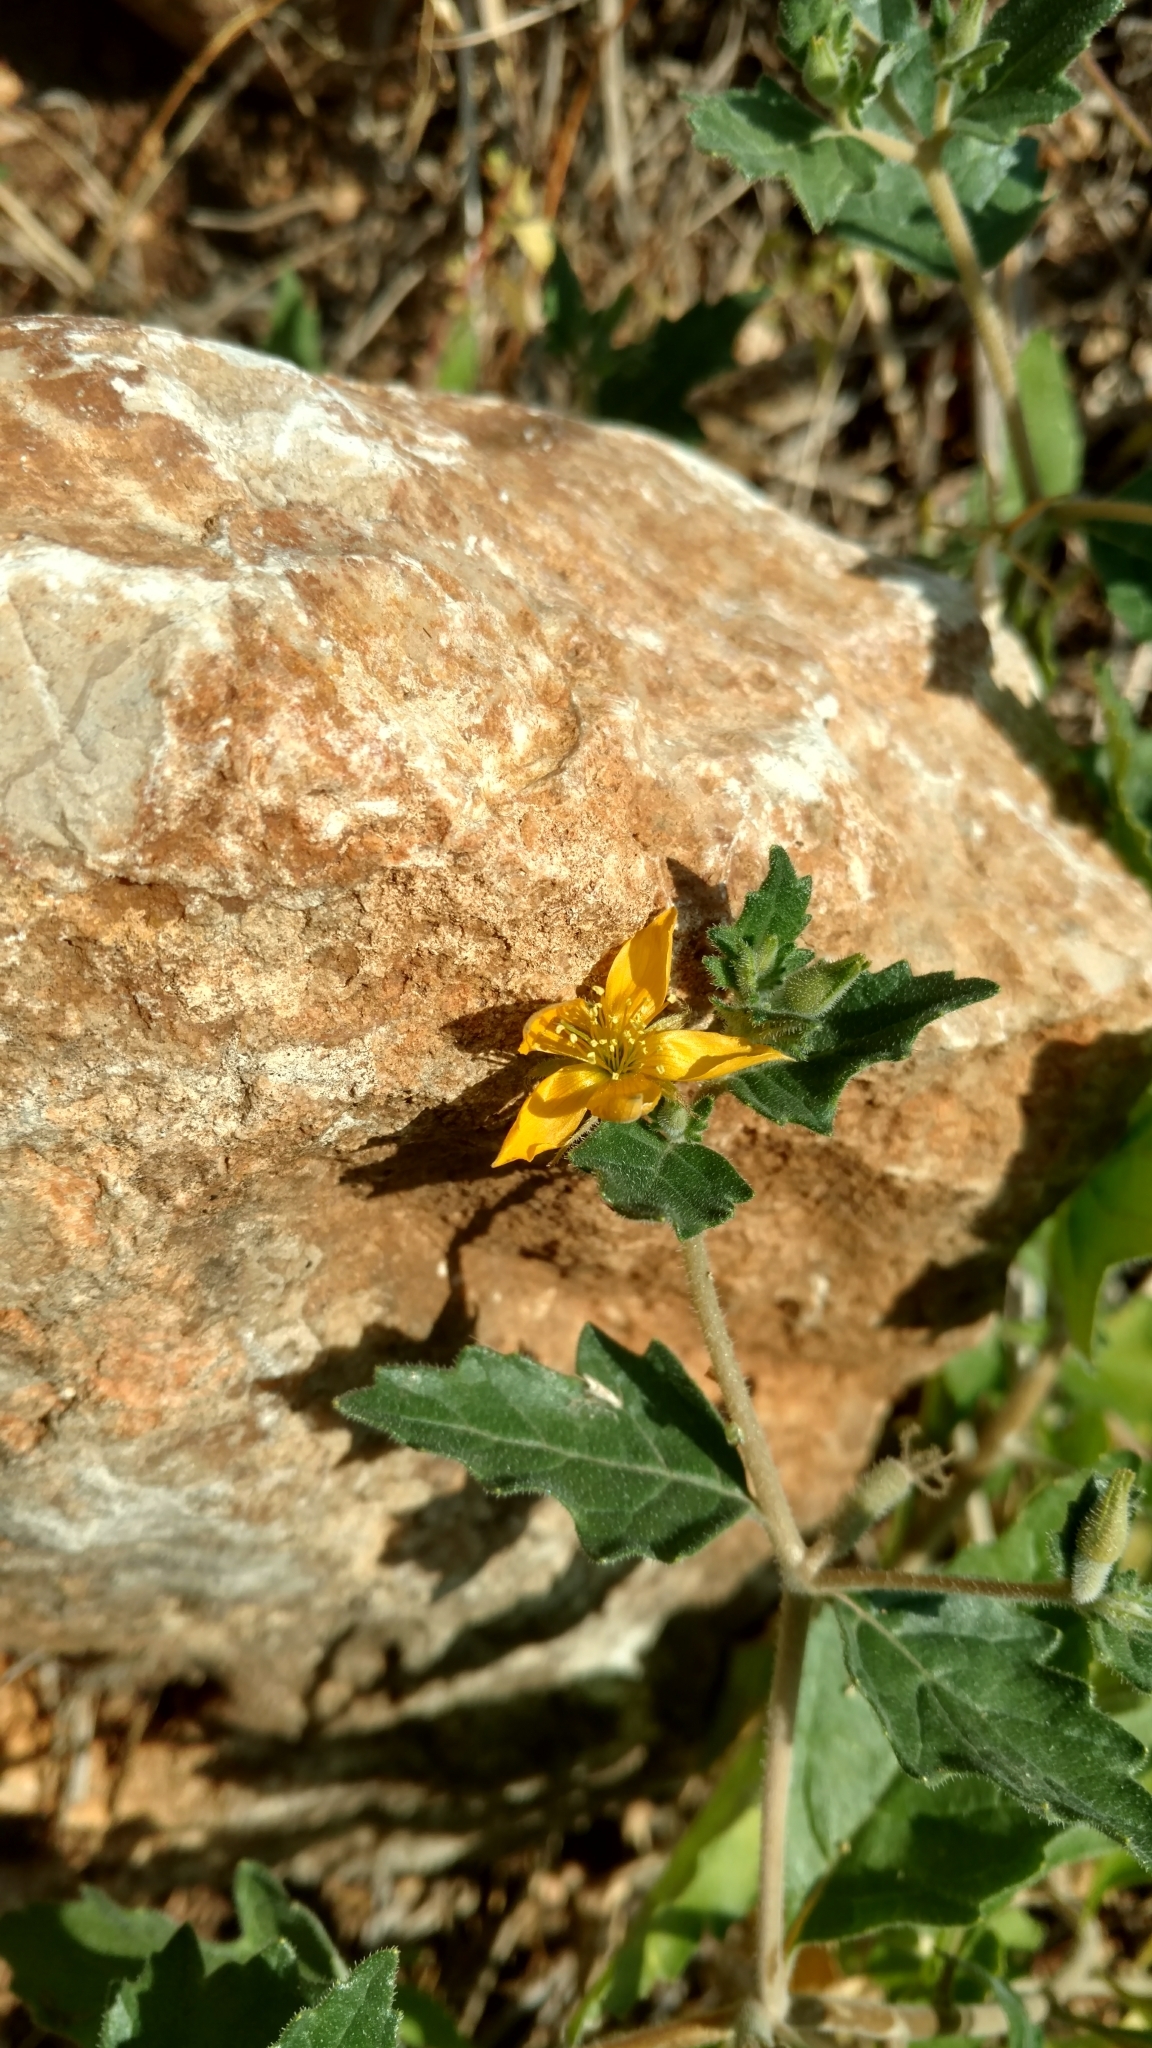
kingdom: Plantae
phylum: Tracheophyta
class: Magnoliopsida
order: Cornales
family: Loasaceae
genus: Mentzelia
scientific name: Mentzelia oligosperma
